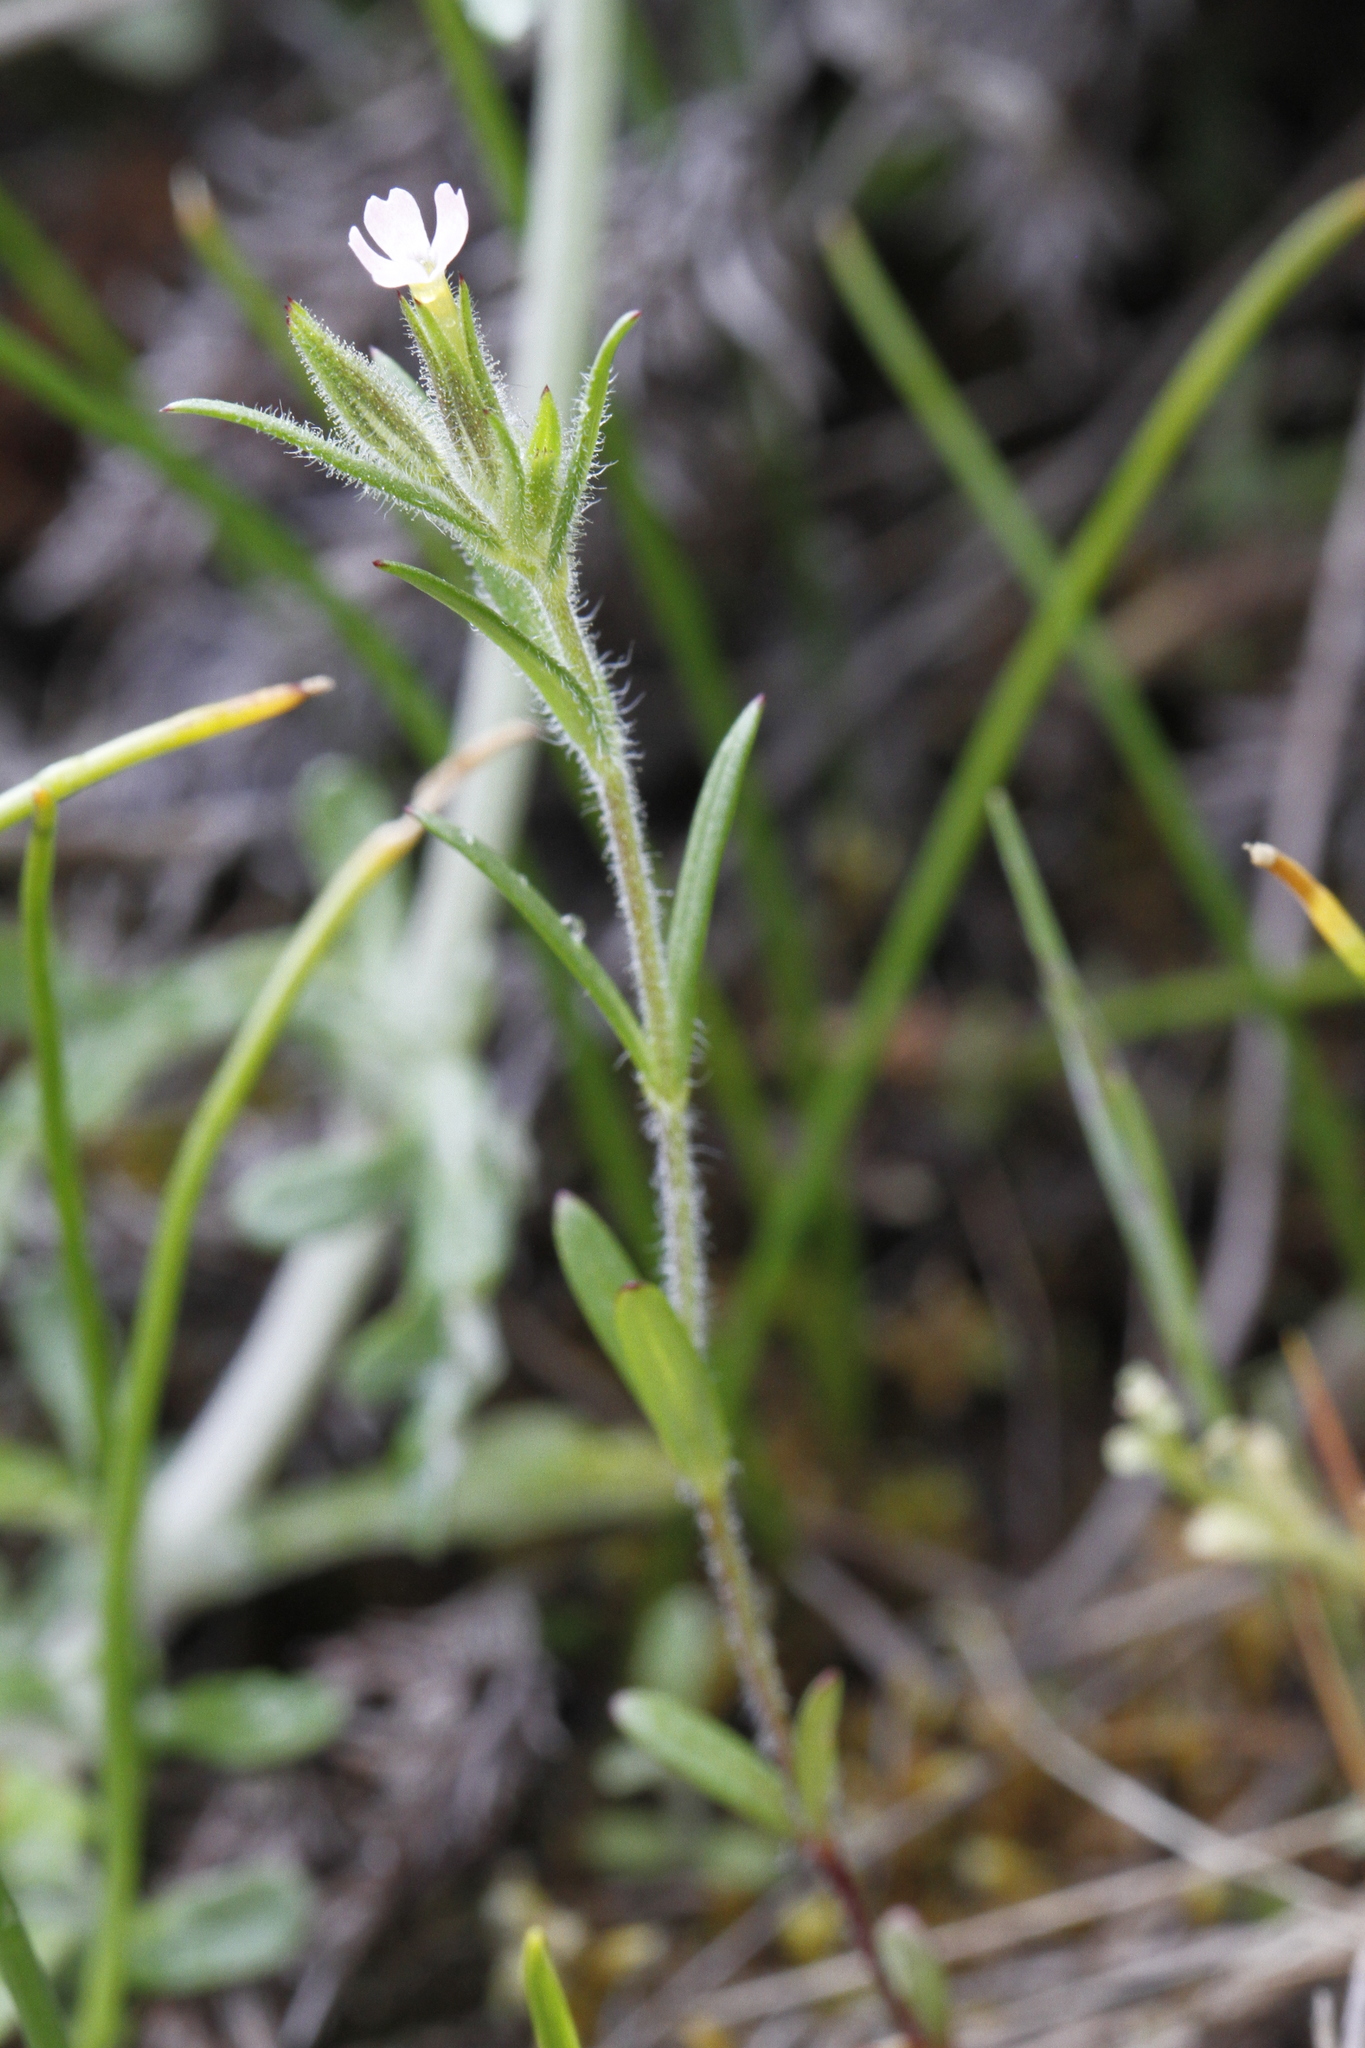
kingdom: Plantae
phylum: Tracheophyta
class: Magnoliopsida
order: Ericales
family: Polemoniaceae
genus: Phlox
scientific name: Phlox gracilis
